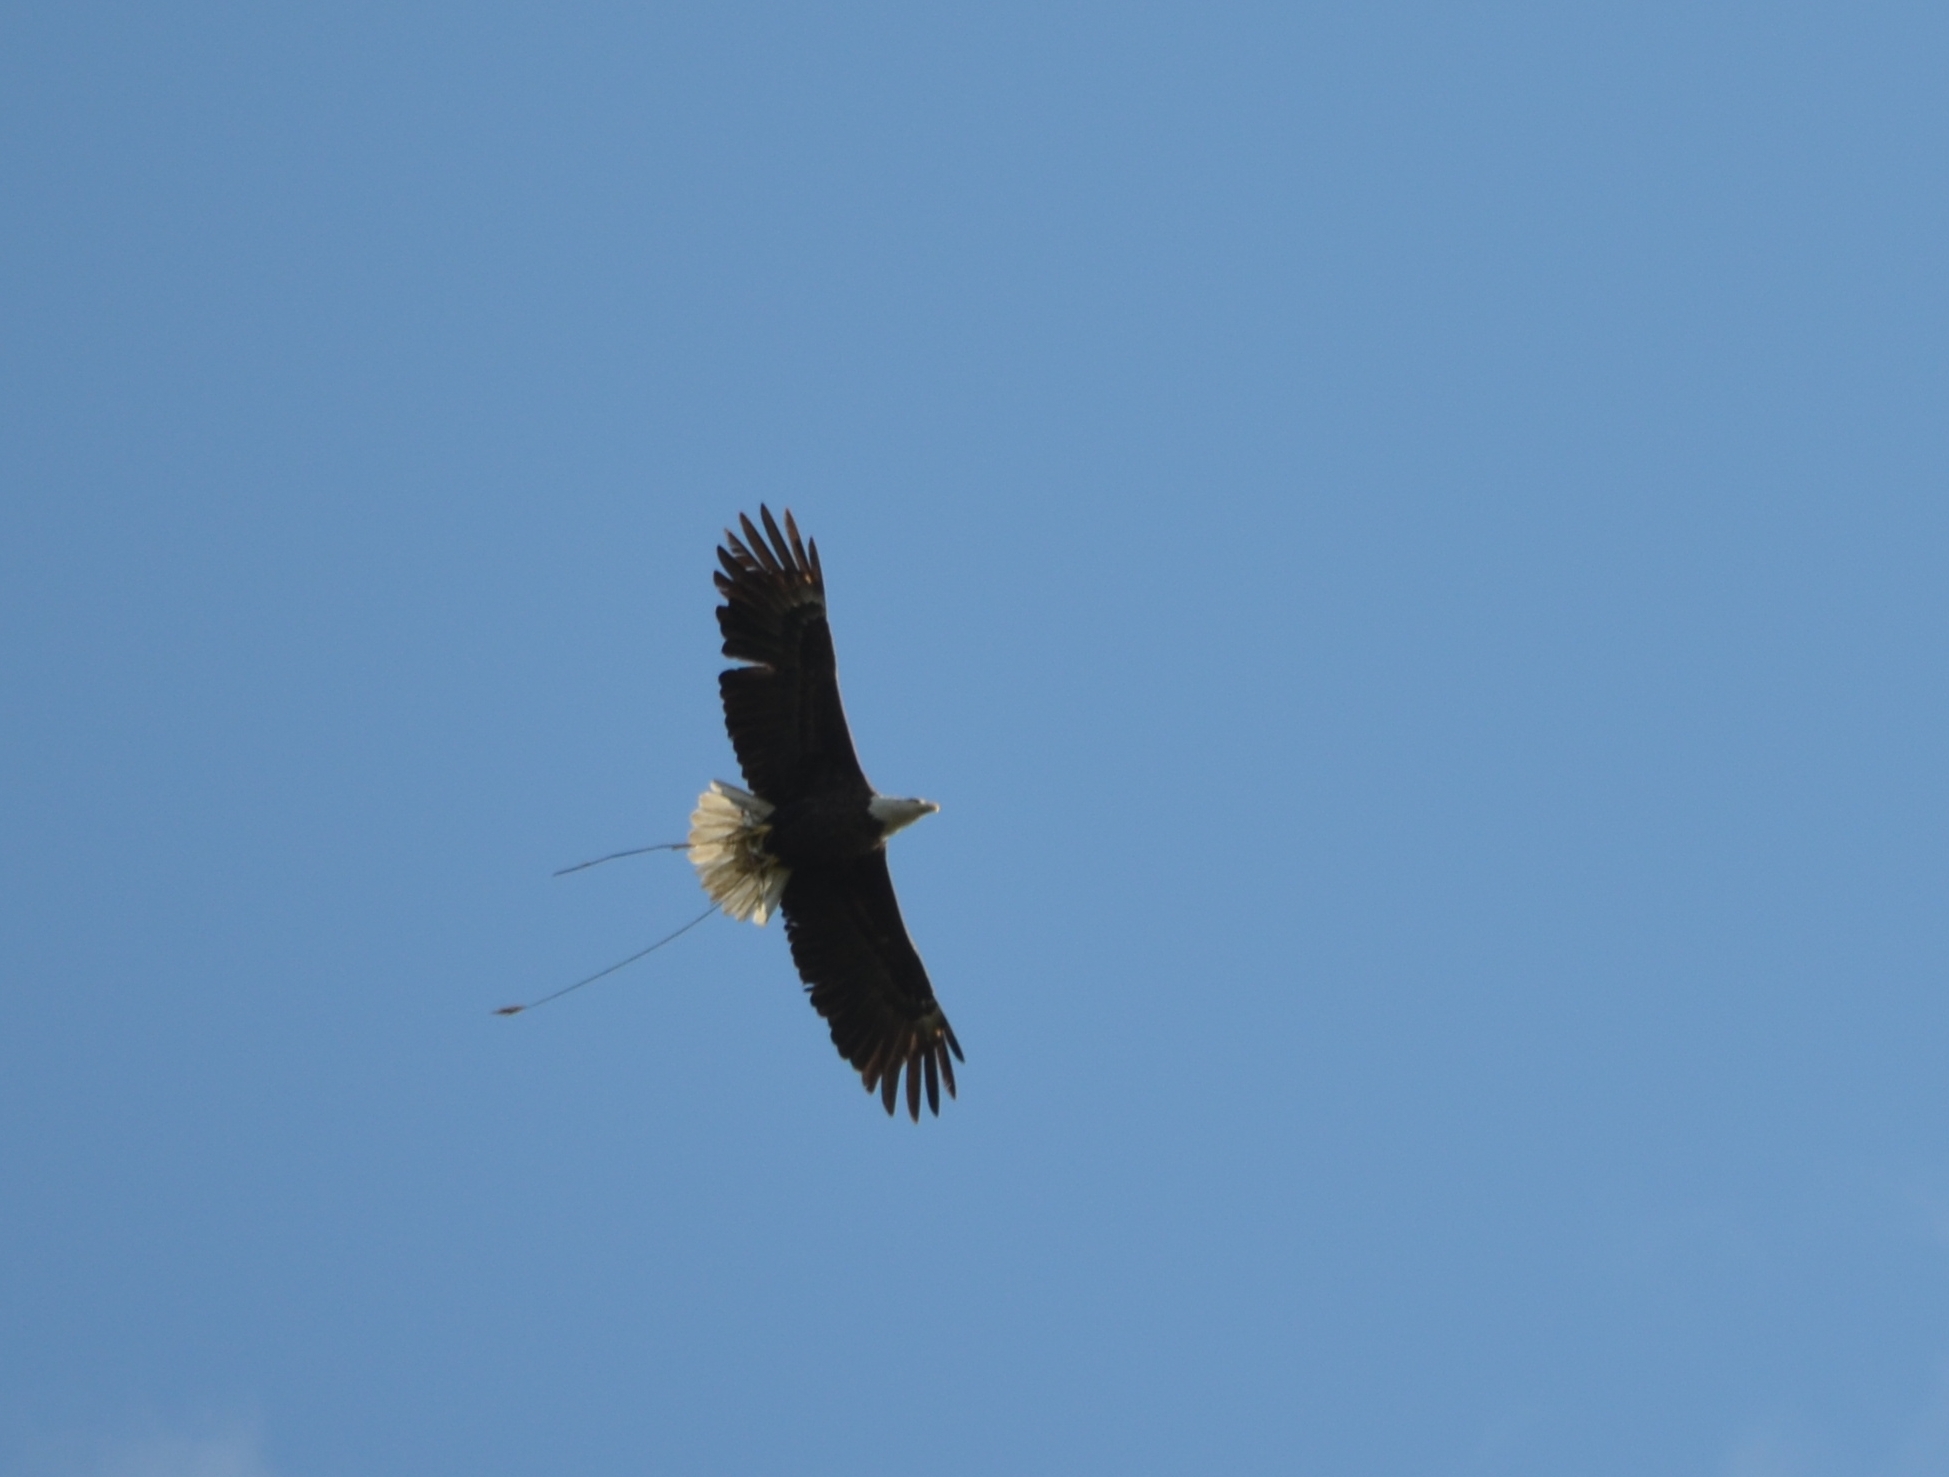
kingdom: Animalia
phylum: Chordata
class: Aves
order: Accipitriformes
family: Accipitridae
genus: Haliaeetus
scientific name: Haliaeetus leucocephalus
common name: Bald eagle
